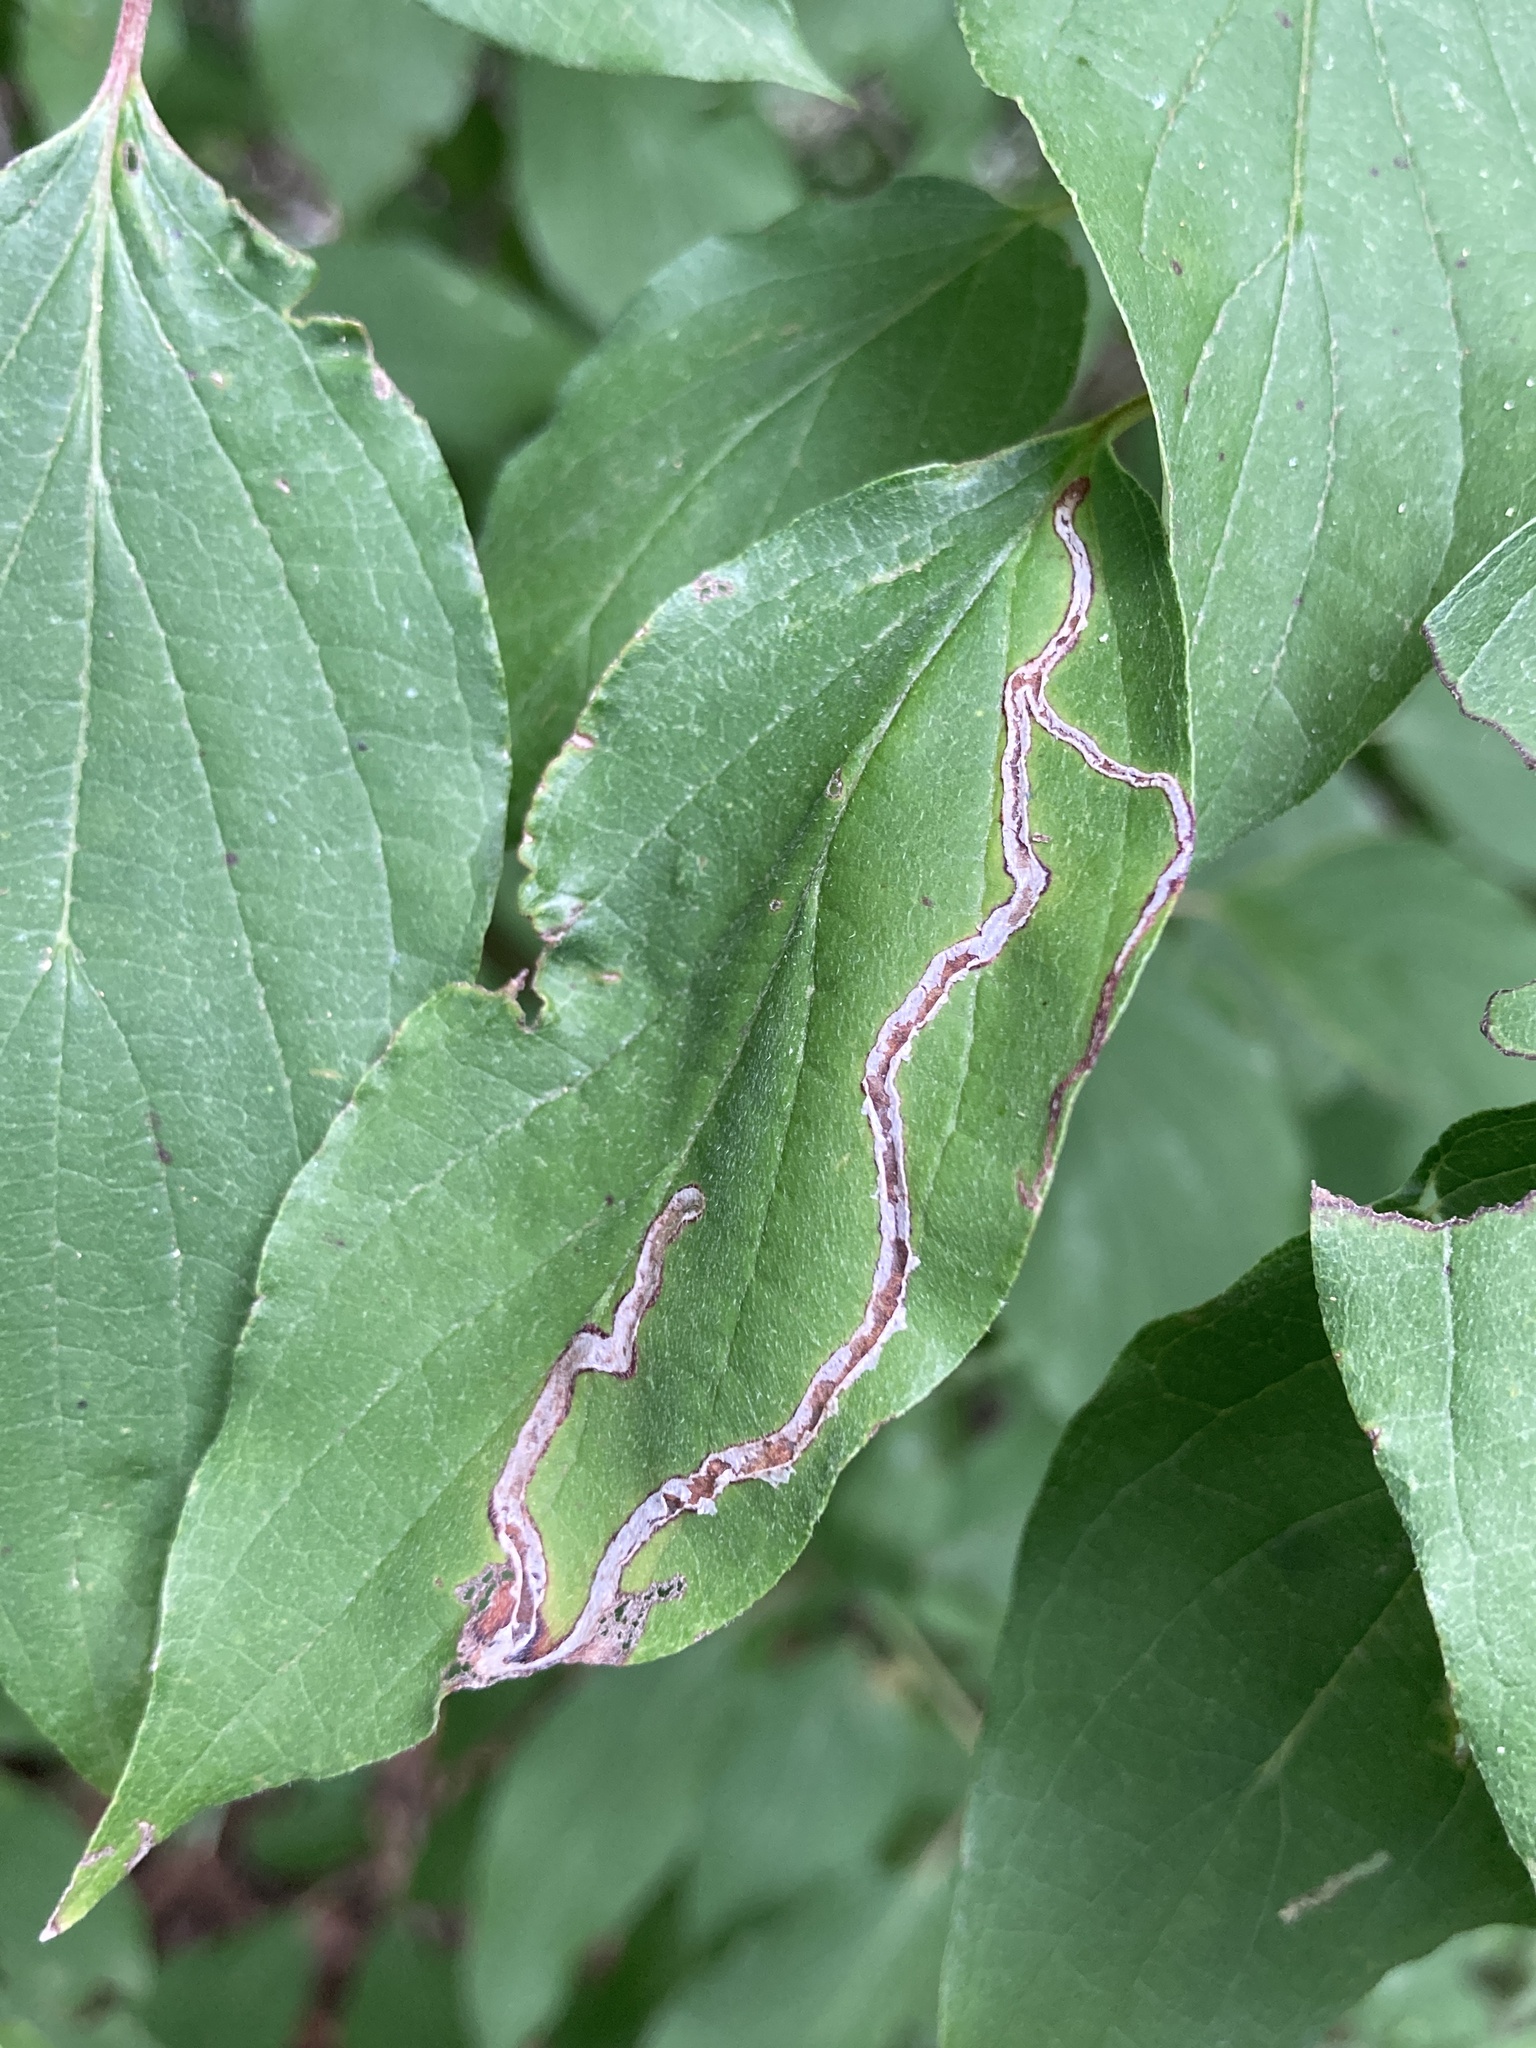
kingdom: Animalia
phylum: Arthropoda
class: Insecta
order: Diptera
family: Agromyzidae
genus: Phytomyza
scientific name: Phytomyza agromyzina
